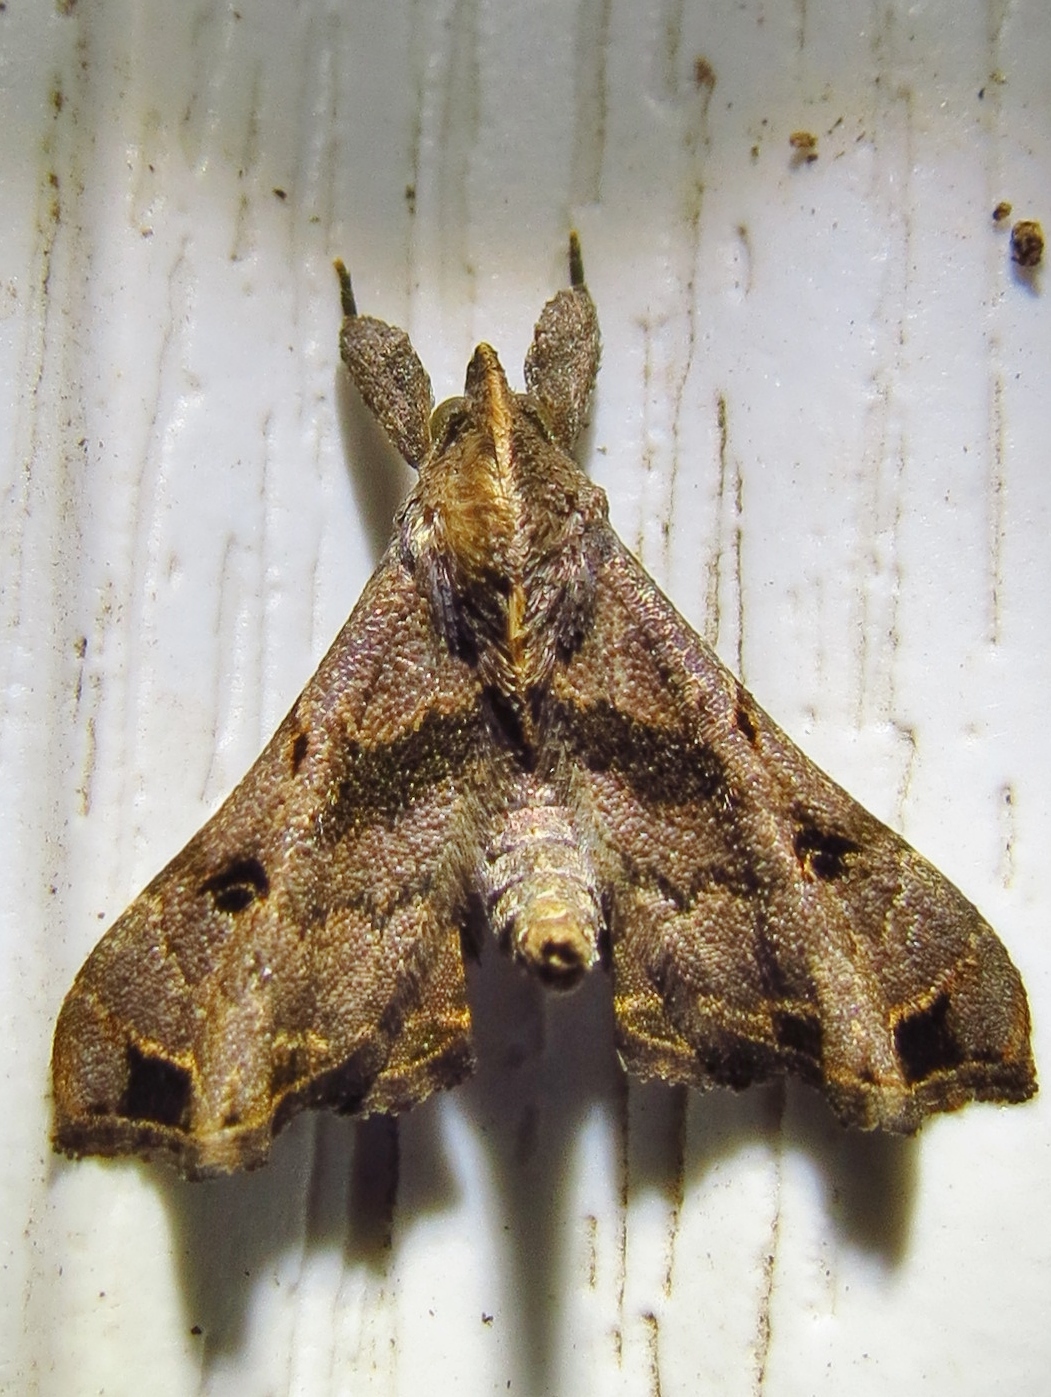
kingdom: Animalia
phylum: Arthropoda
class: Insecta
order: Lepidoptera
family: Erebidae
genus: Palthis
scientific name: Palthis asopialis
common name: Faint-spotted palthis moth
